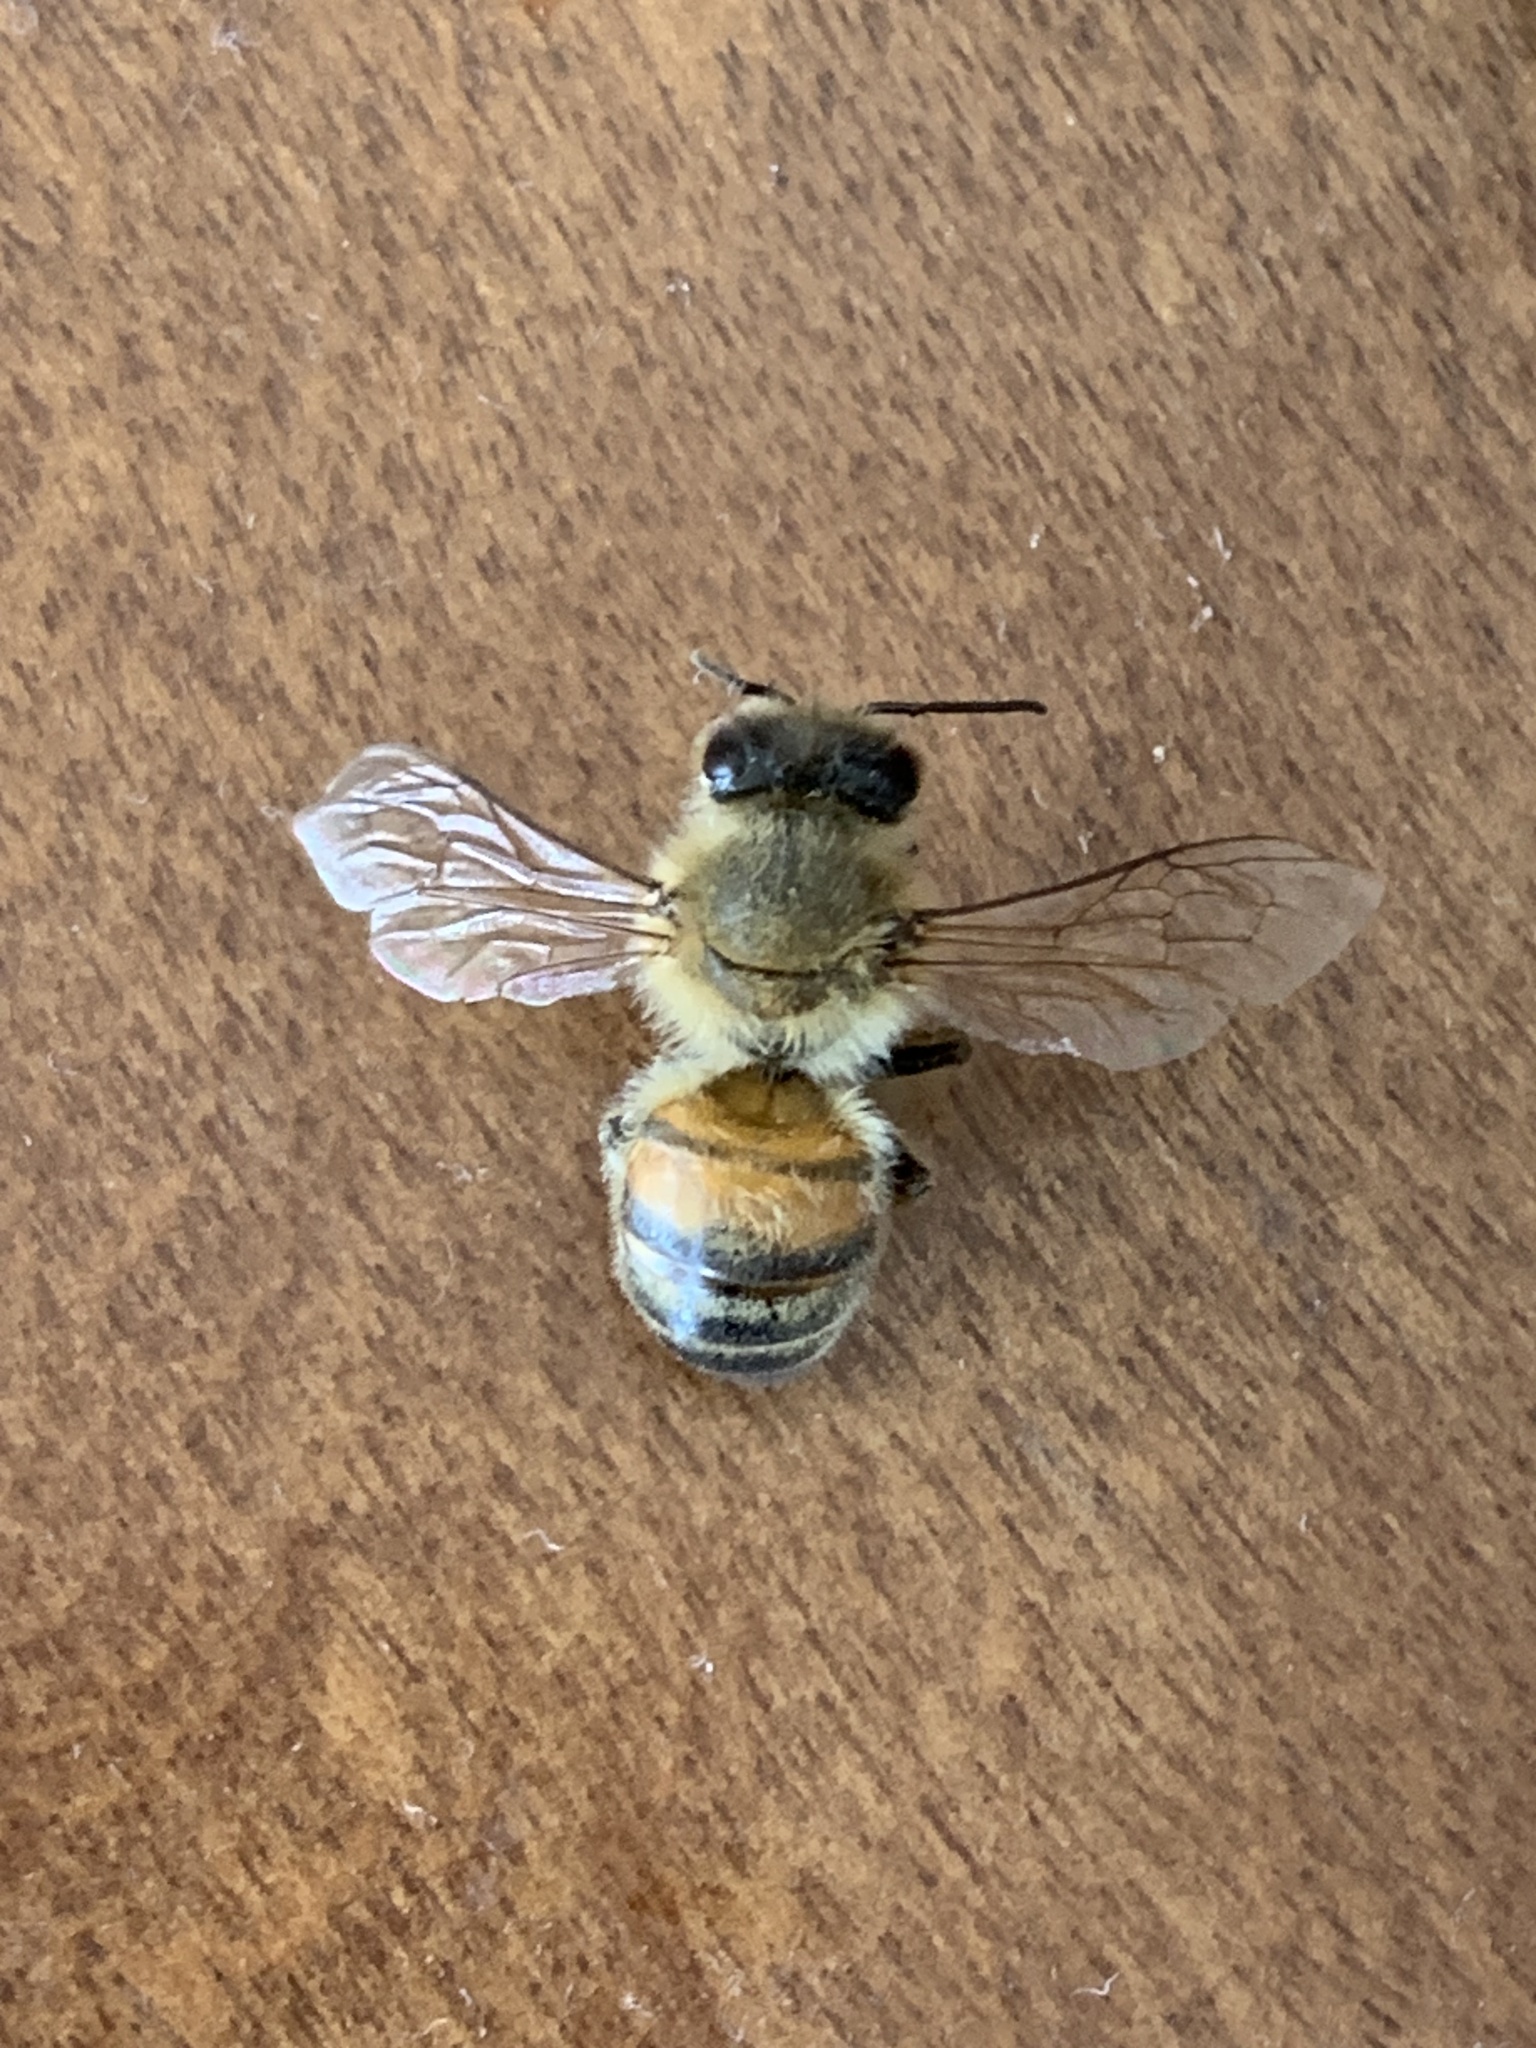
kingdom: Animalia
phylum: Arthropoda
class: Insecta
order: Hymenoptera
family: Apidae
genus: Apis
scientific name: Apis mellifera
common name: Honey bee
